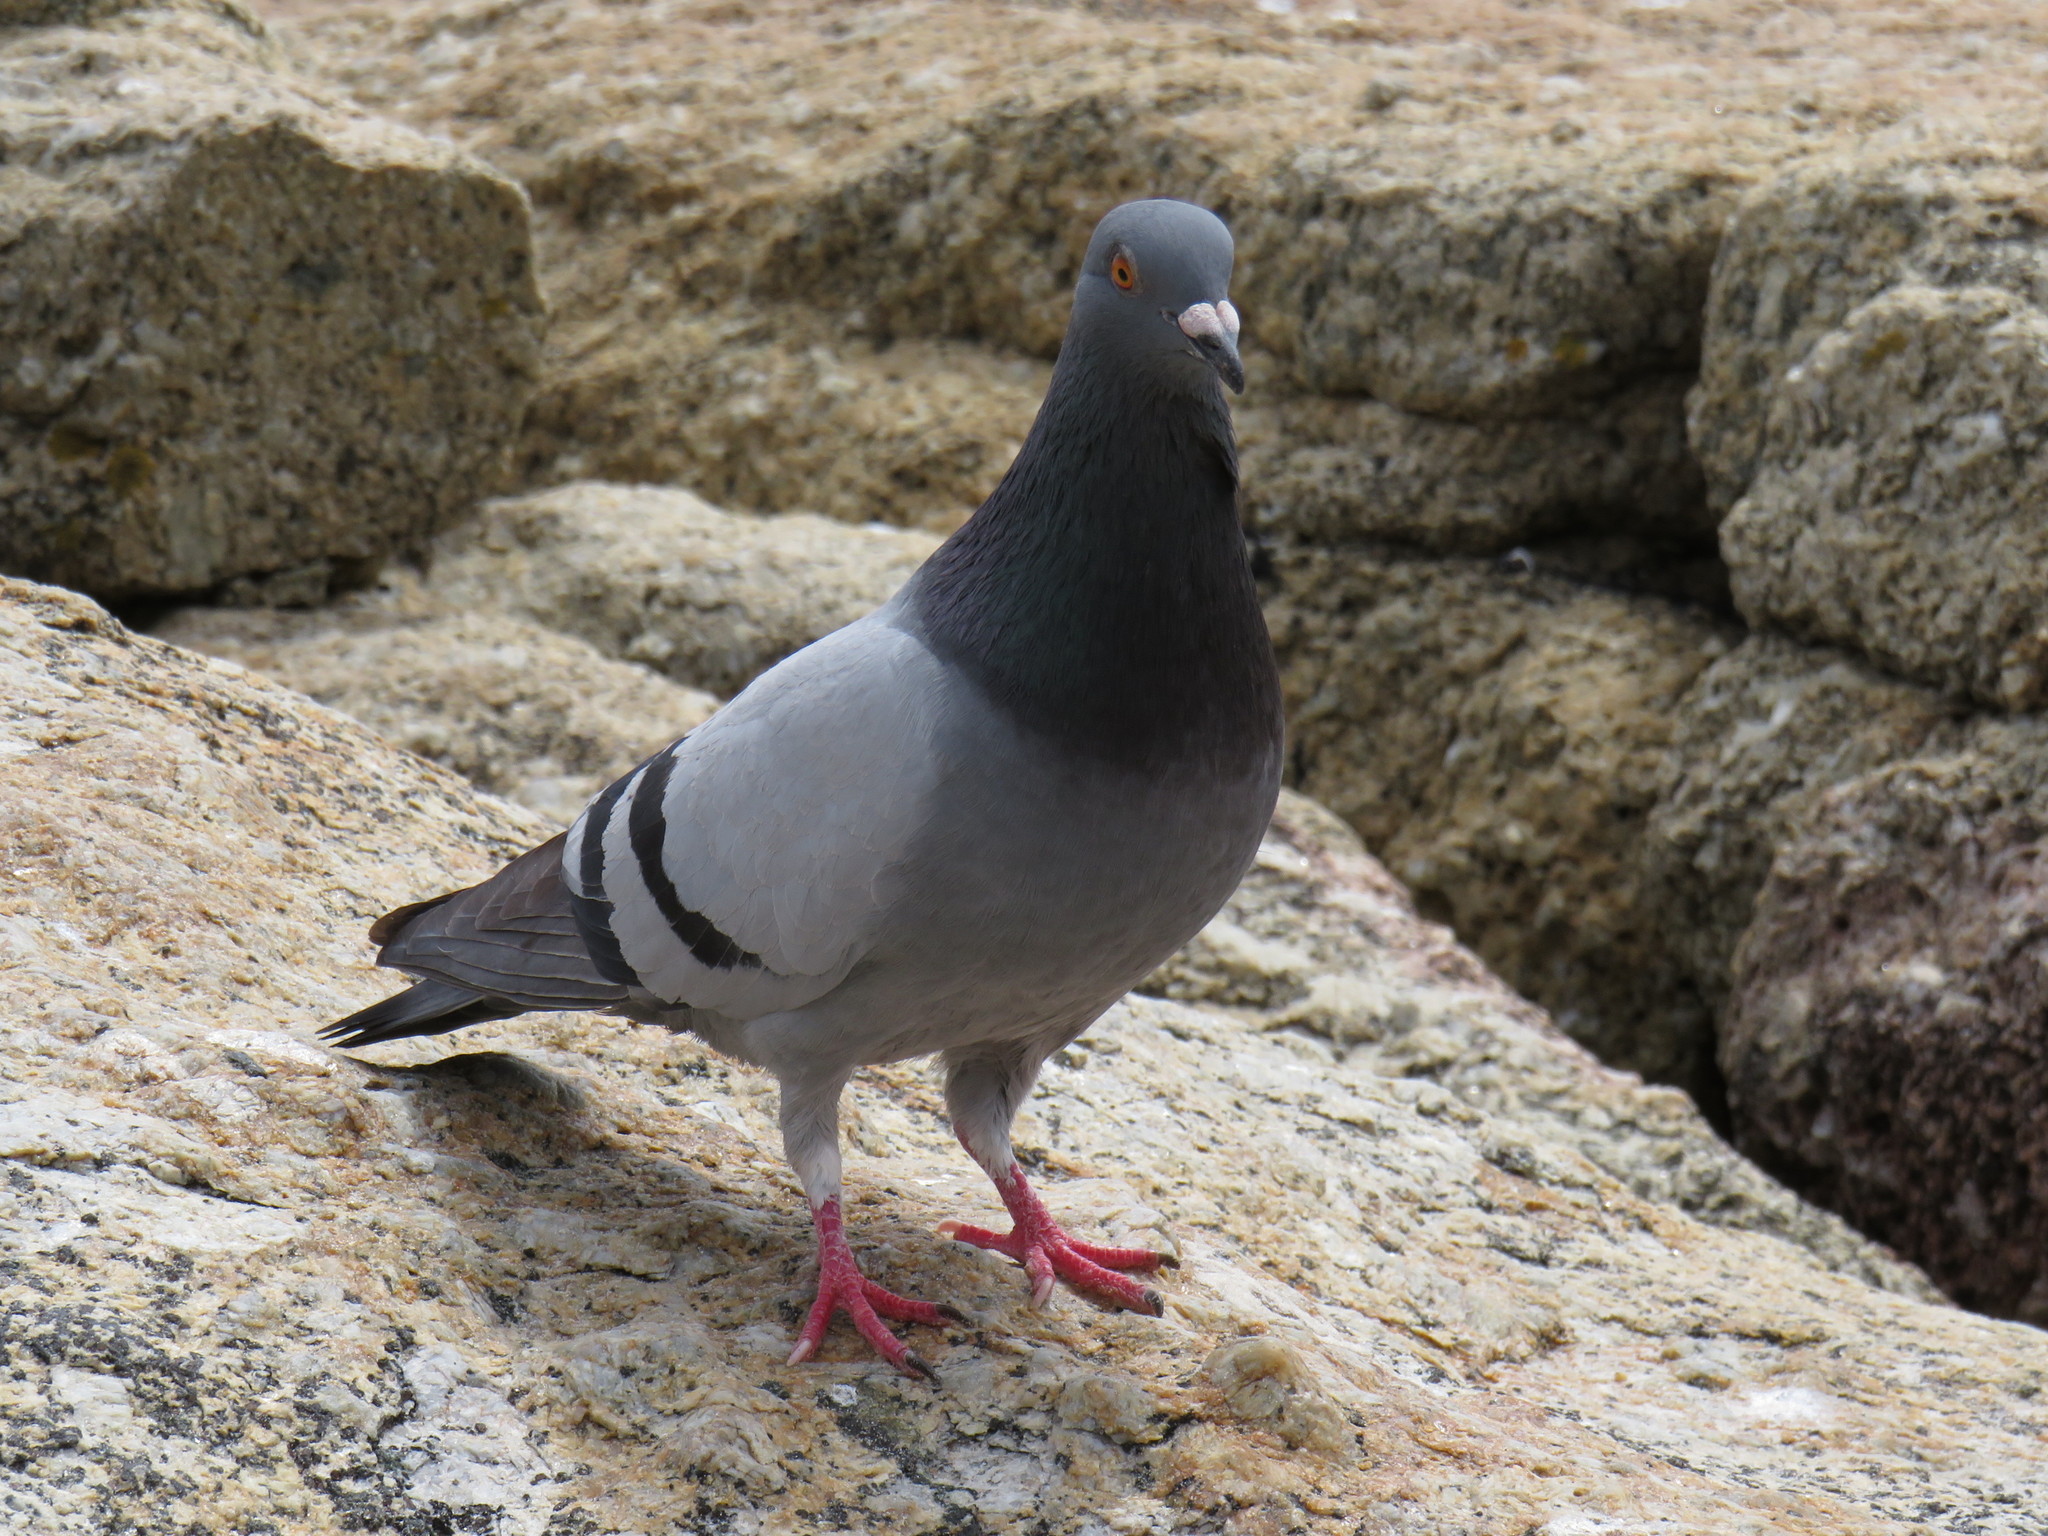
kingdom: Animalia
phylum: Chordata
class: Aves
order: Columbiformes
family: Columbidae
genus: Columba
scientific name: Columba livia
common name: Rock pigeon
